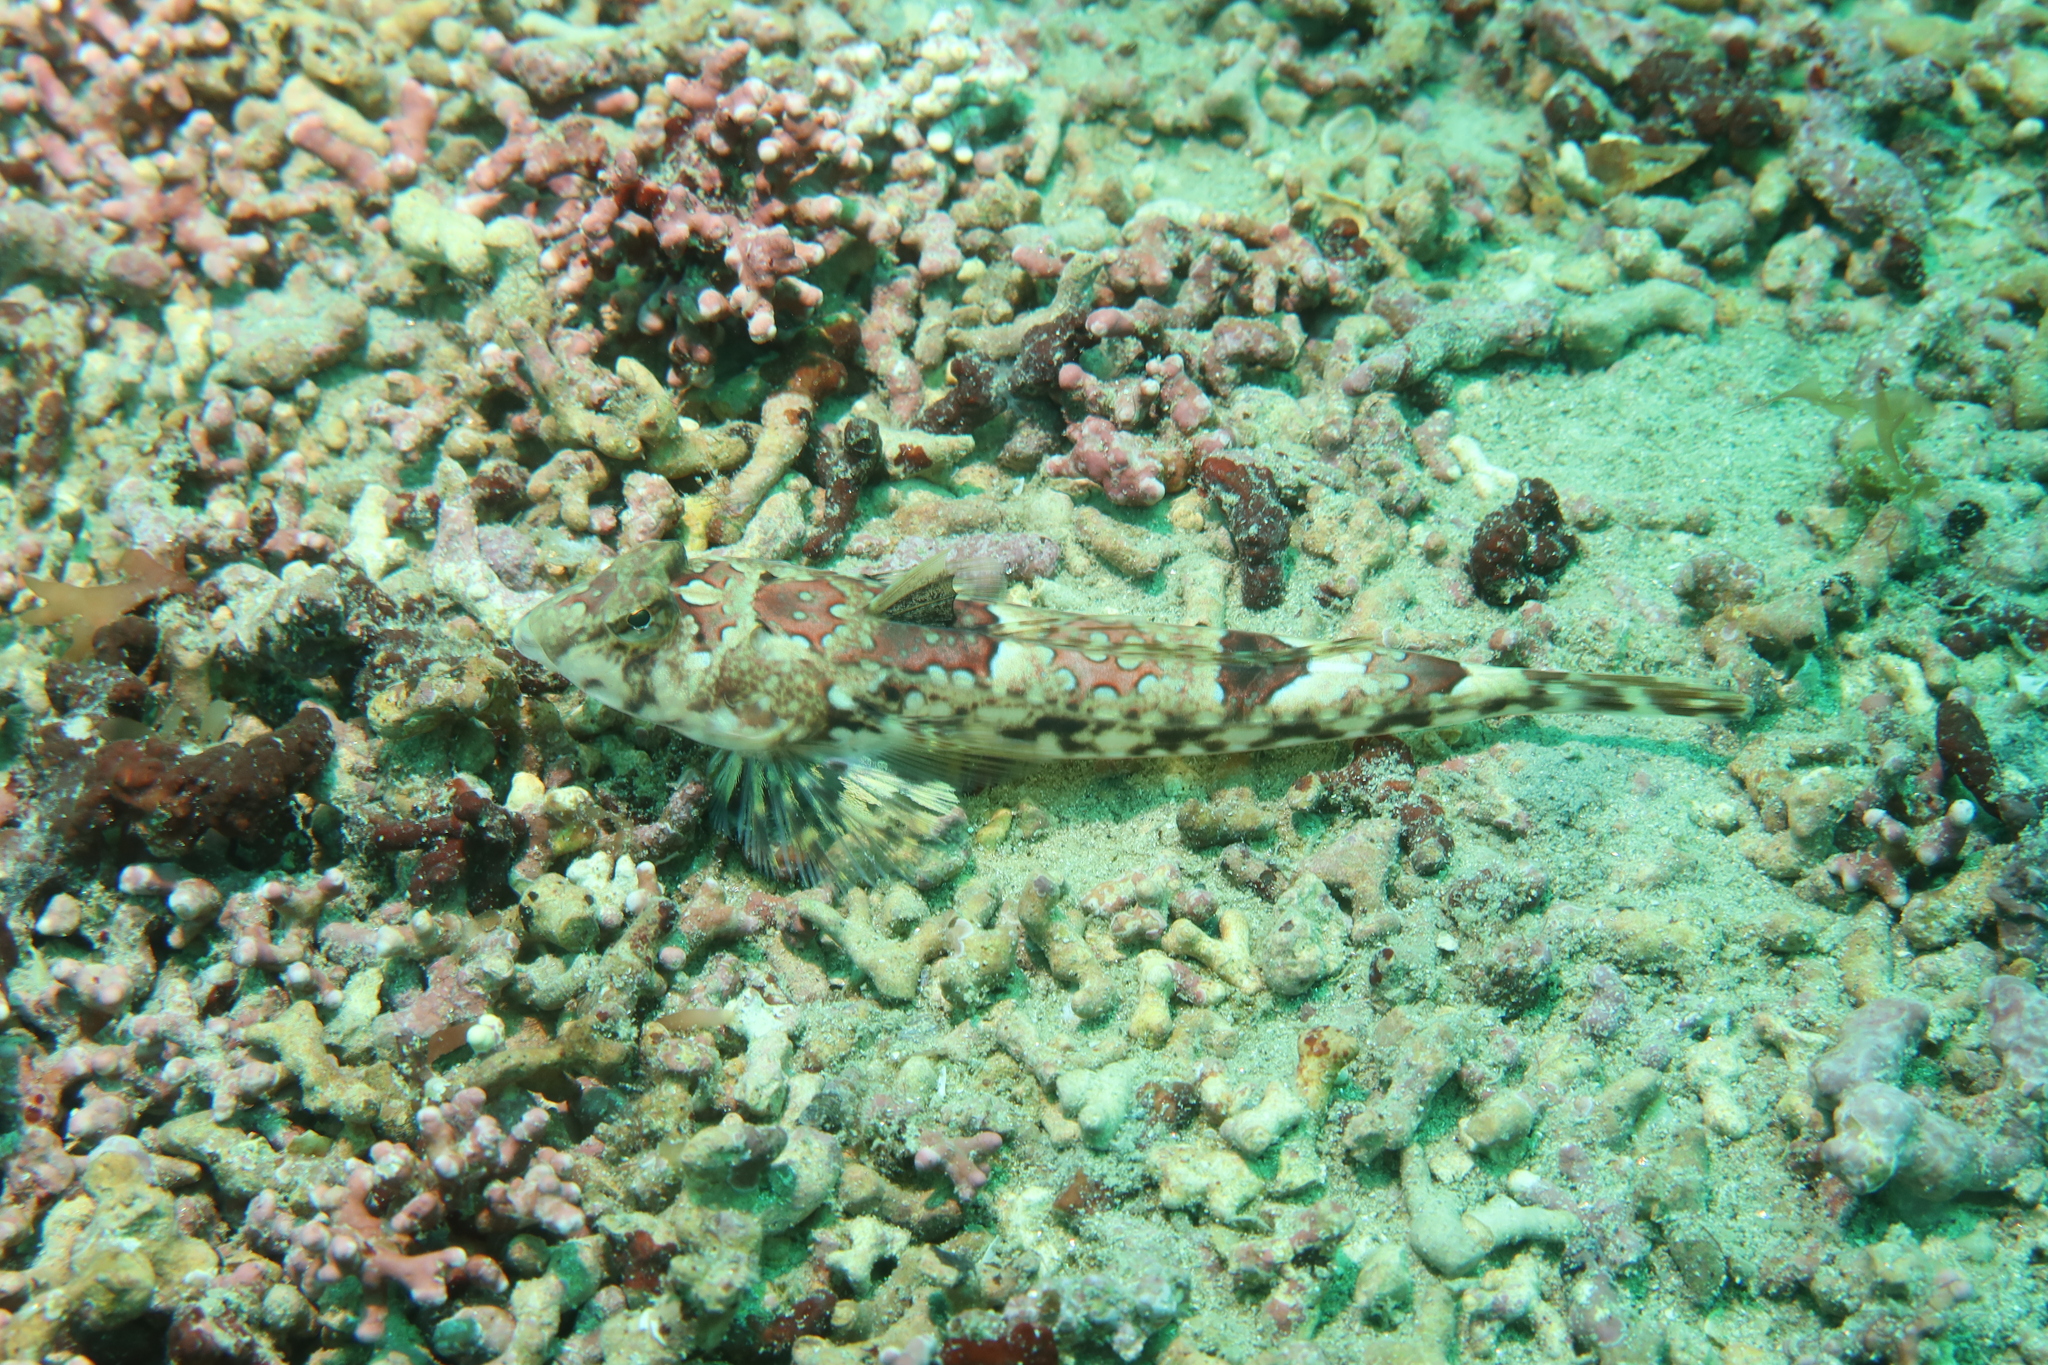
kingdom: Animalia
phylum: Chordata
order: Perciformes
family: Callionymidae
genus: Callionymus
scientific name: Callionymus lyra
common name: Dragonet
